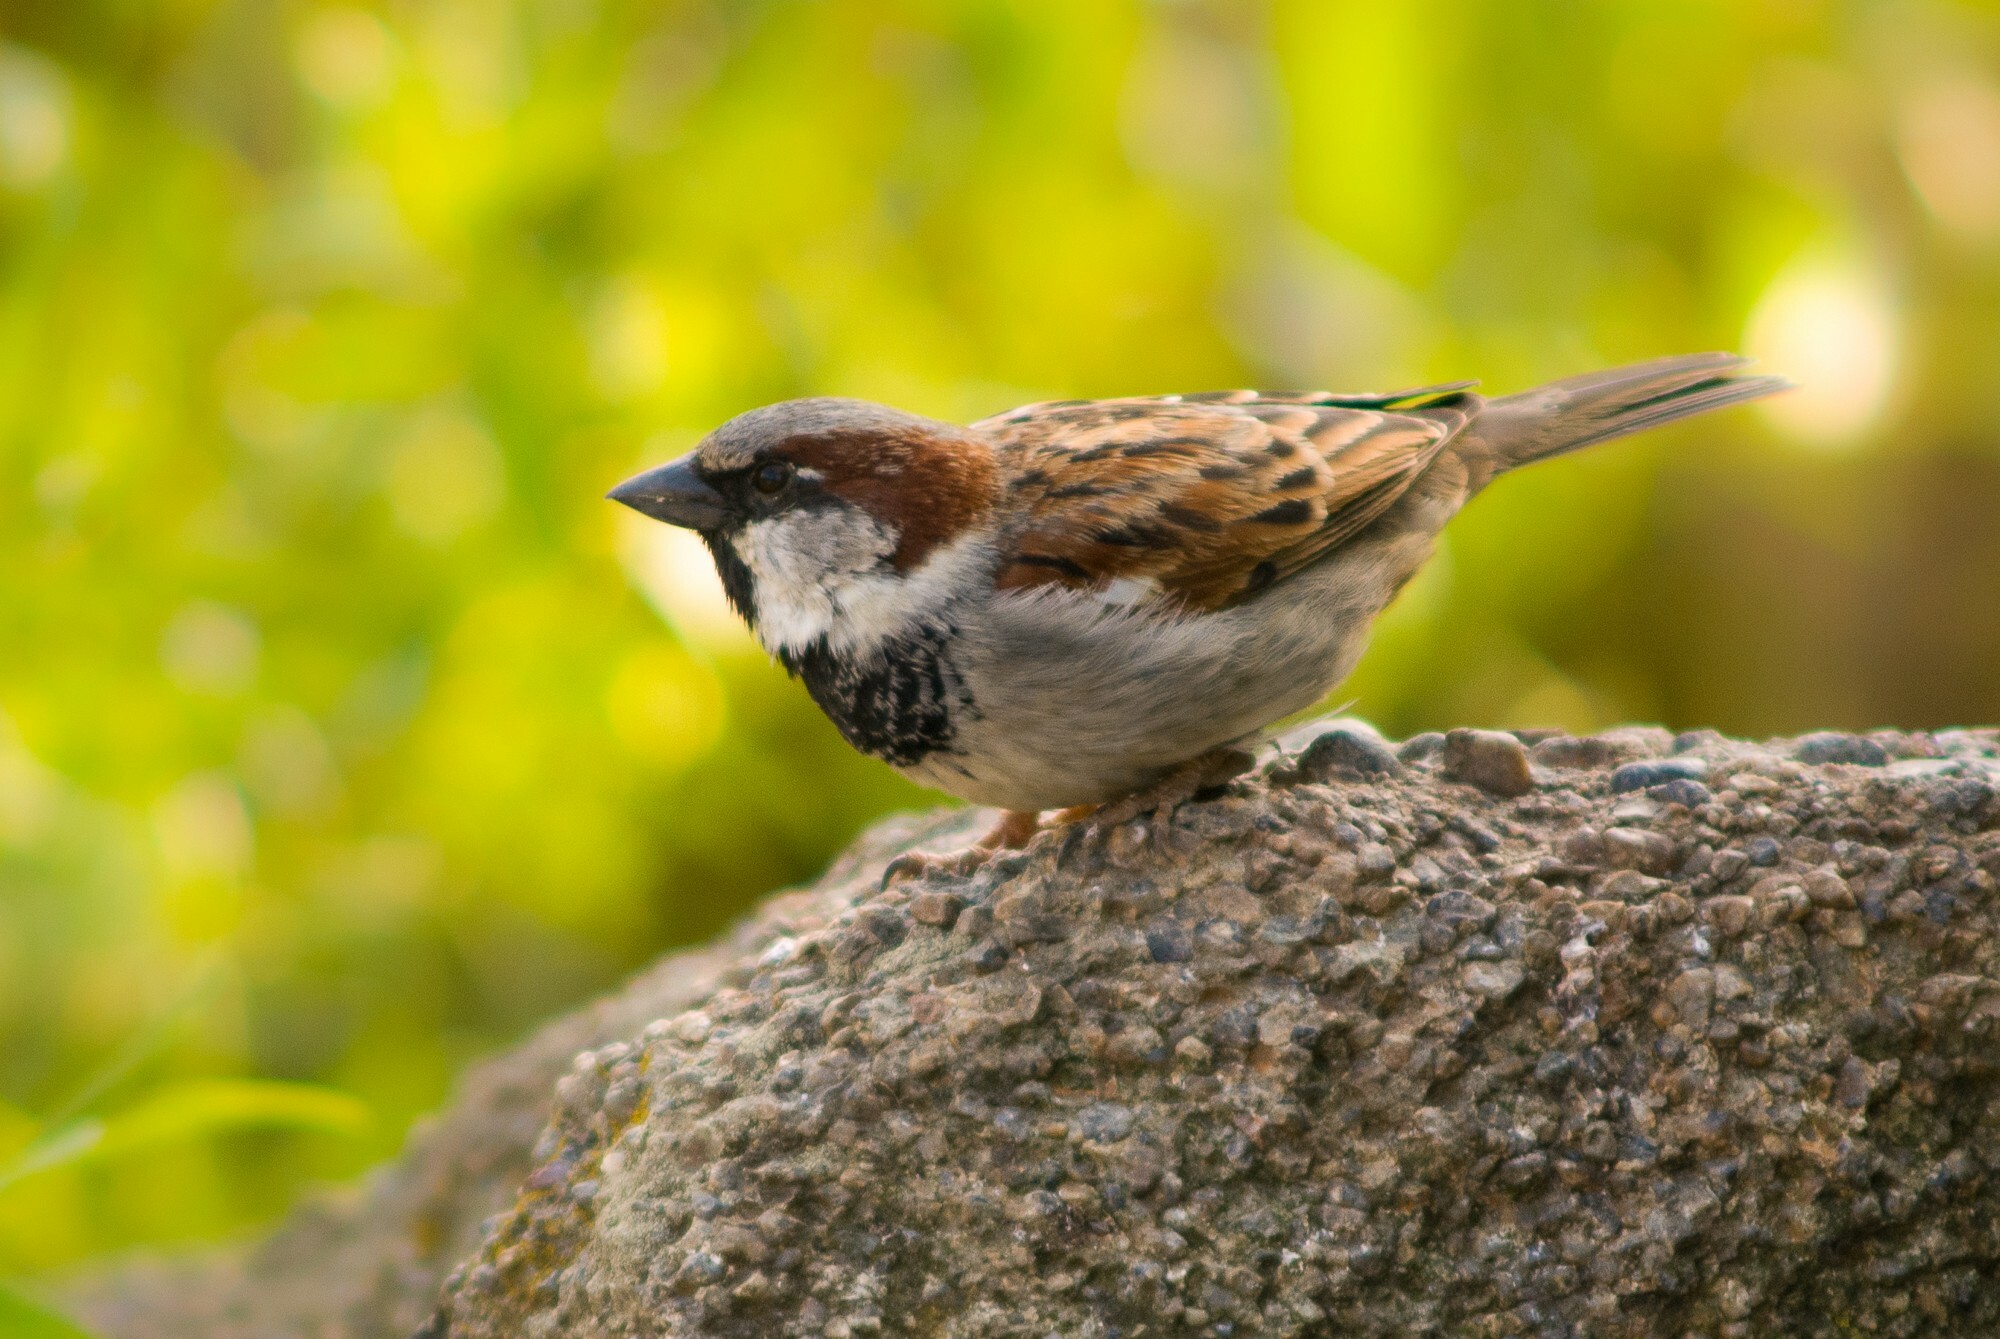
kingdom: Animalia
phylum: Chordata
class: Aves
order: Passeriformes
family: Passeridae
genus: Passer
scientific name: Passer domesticus
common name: House sparrow
